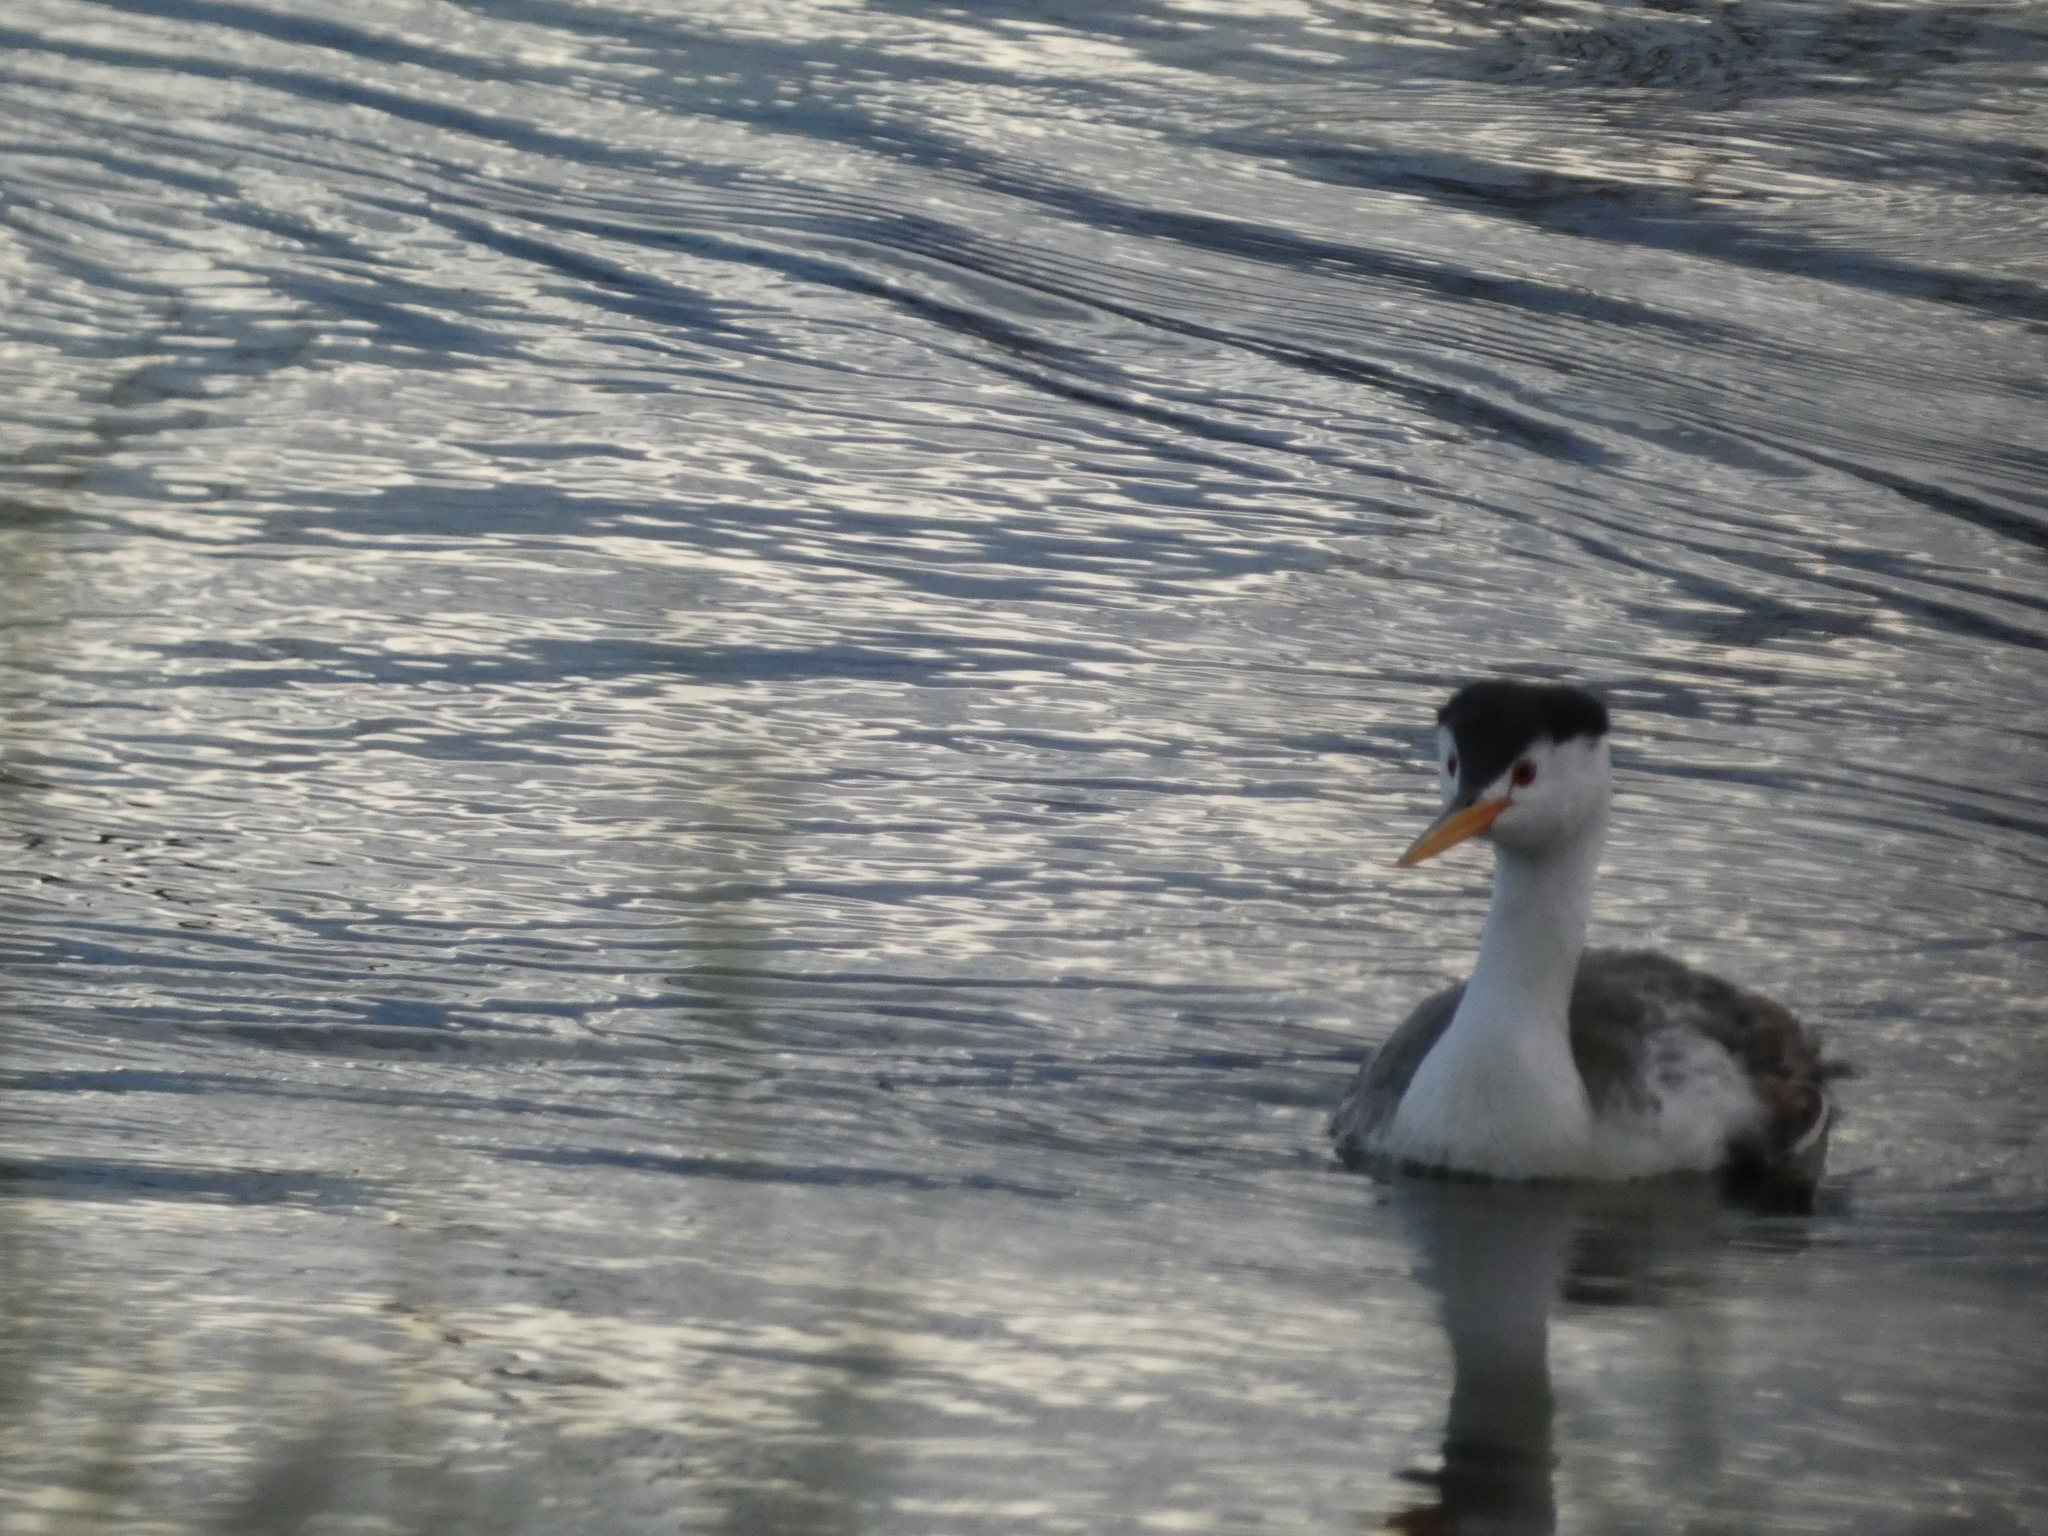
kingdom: Animalia
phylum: Chordata
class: Aves
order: Podicipediformes
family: Podicipedidae
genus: Aechmophorus
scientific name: Aechmophorus clarkii
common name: Clark's grebe
